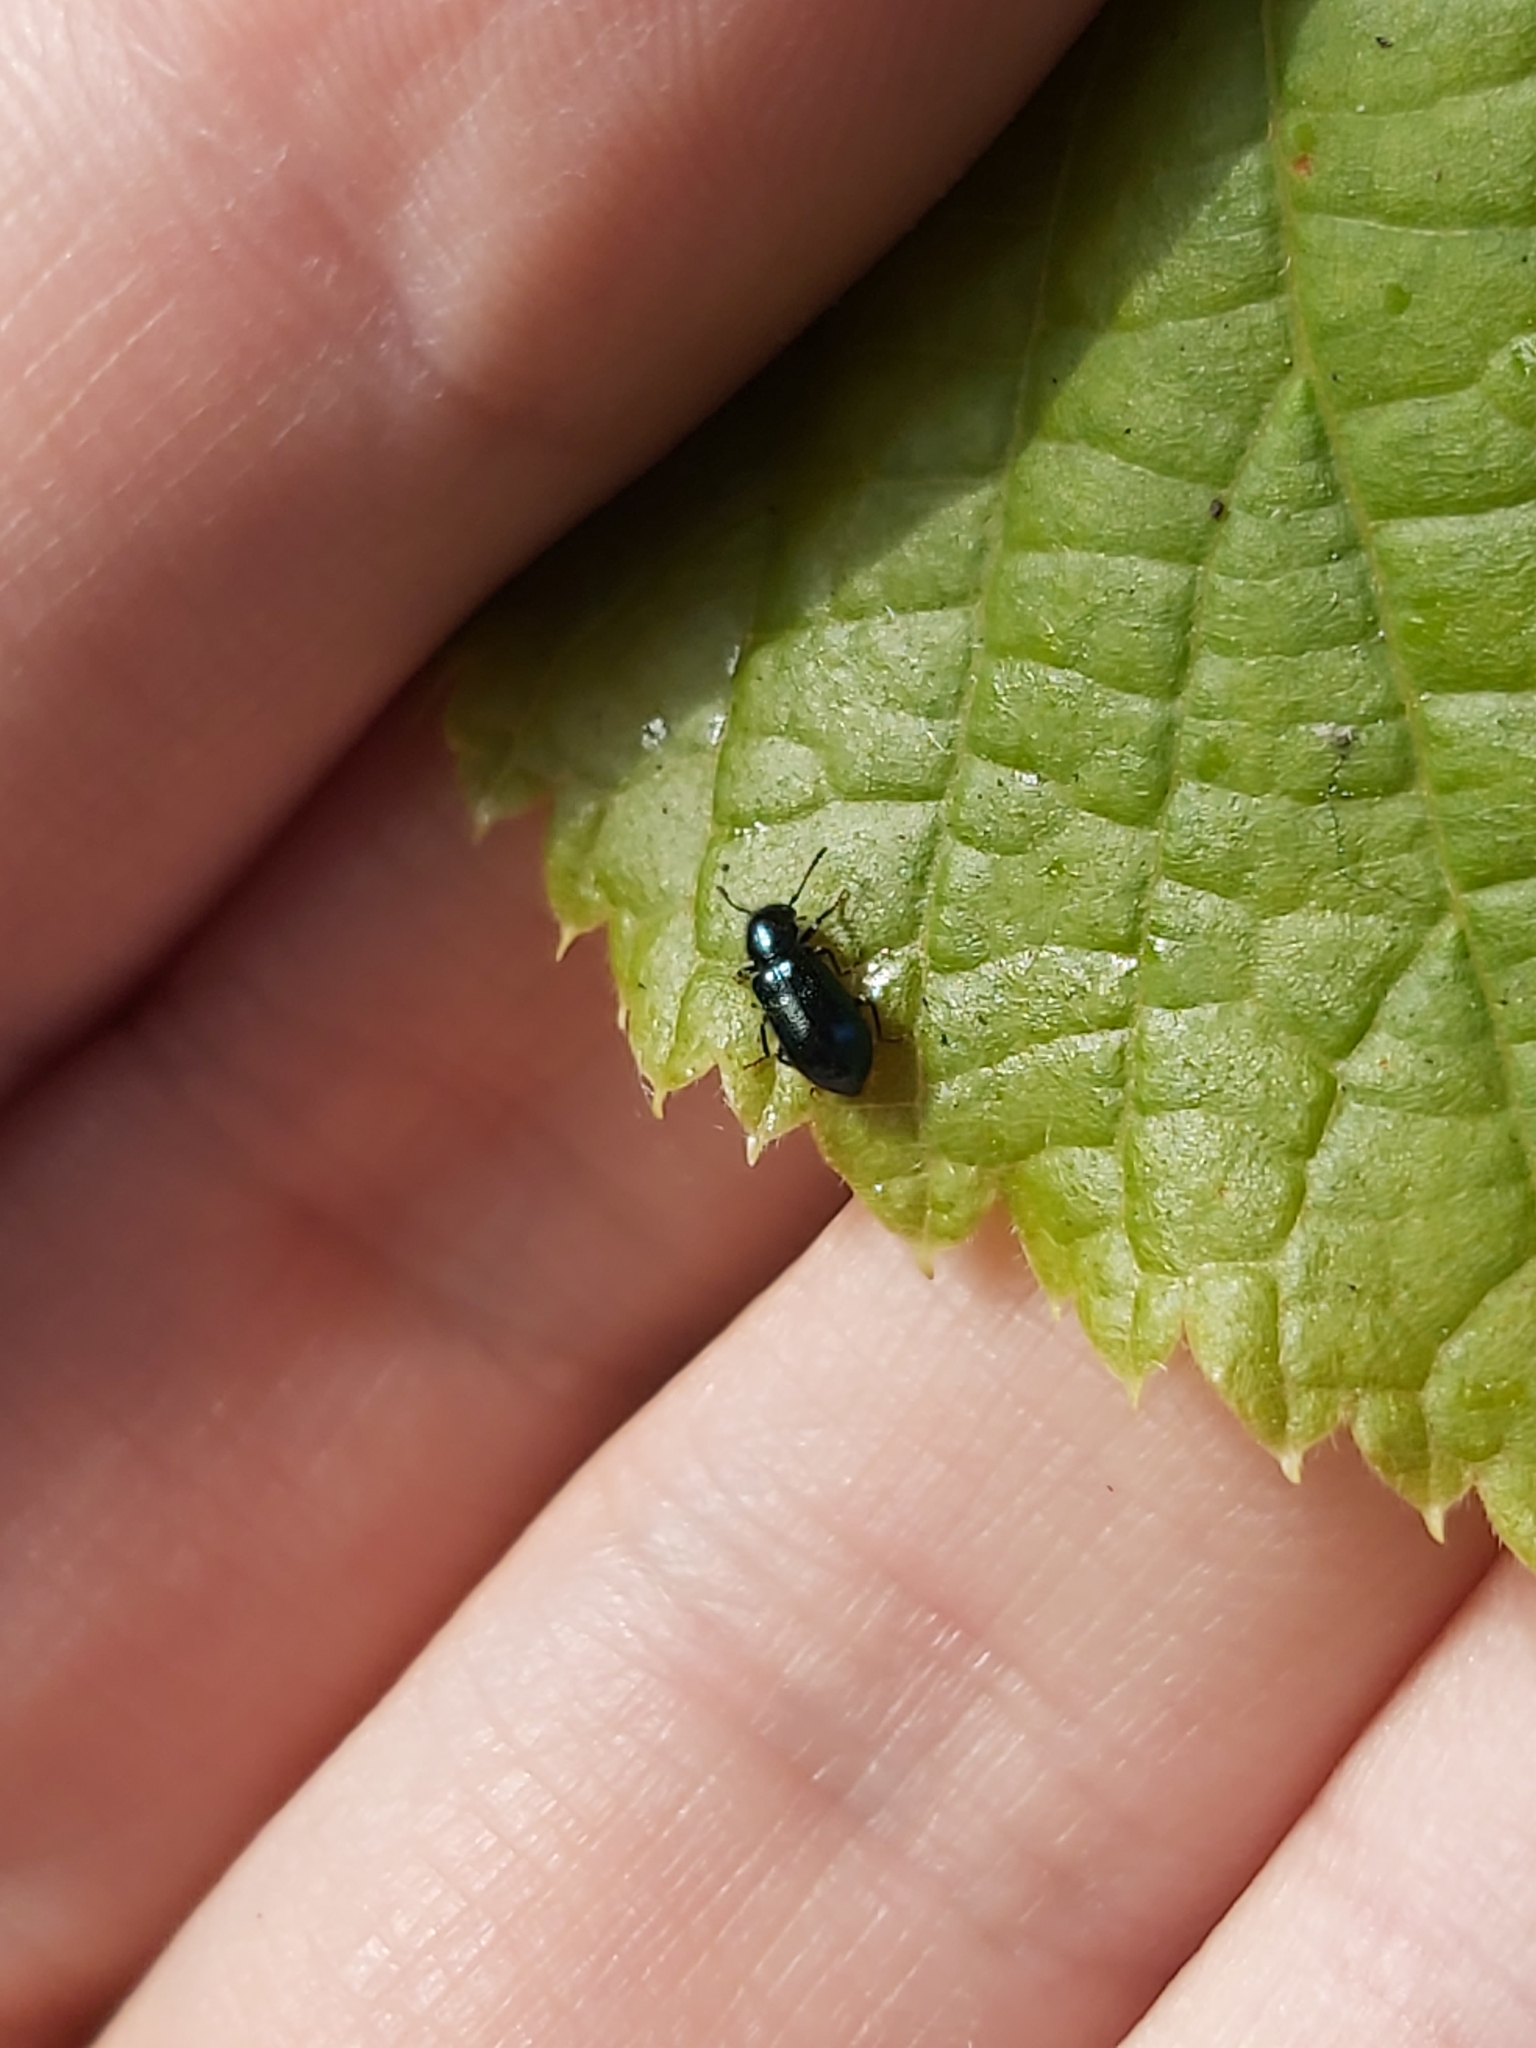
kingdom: Animalia
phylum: Arthropoda
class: Insecta
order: Coleoptera
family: Cleridae
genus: Korynetes
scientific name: Korynetes caeruleus
